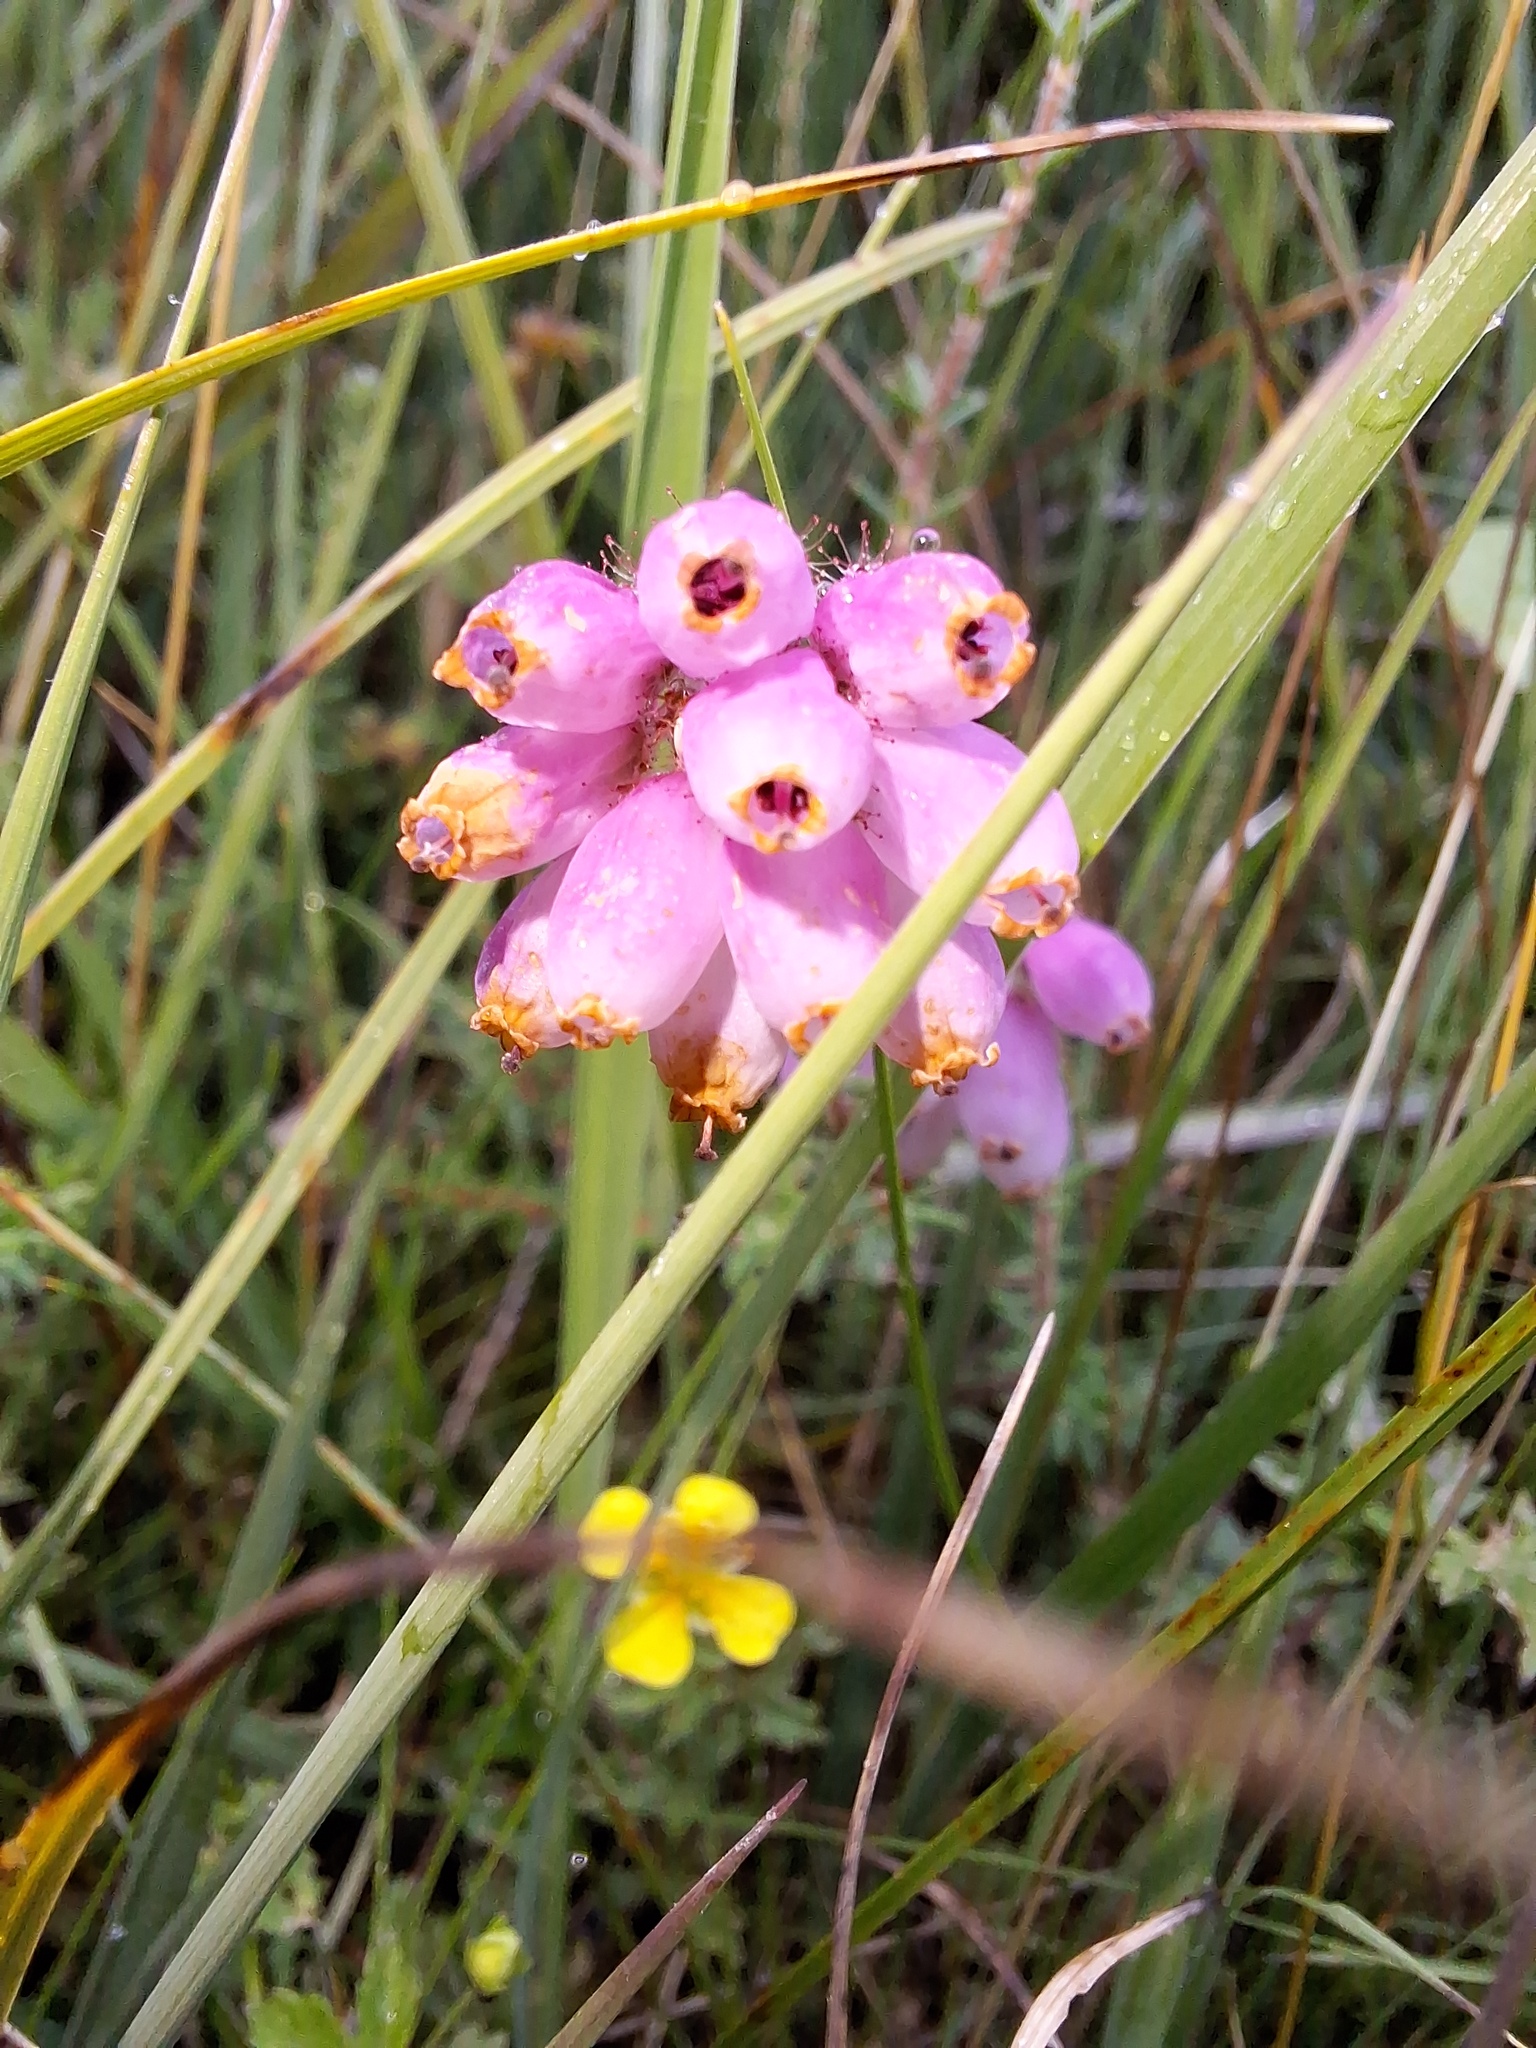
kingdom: Plantae
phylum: Tracheophyta
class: Magnoliopsida
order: Ericales
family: Ericaceae
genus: Erica
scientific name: Erica tetralix
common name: Cross-leaved heath
